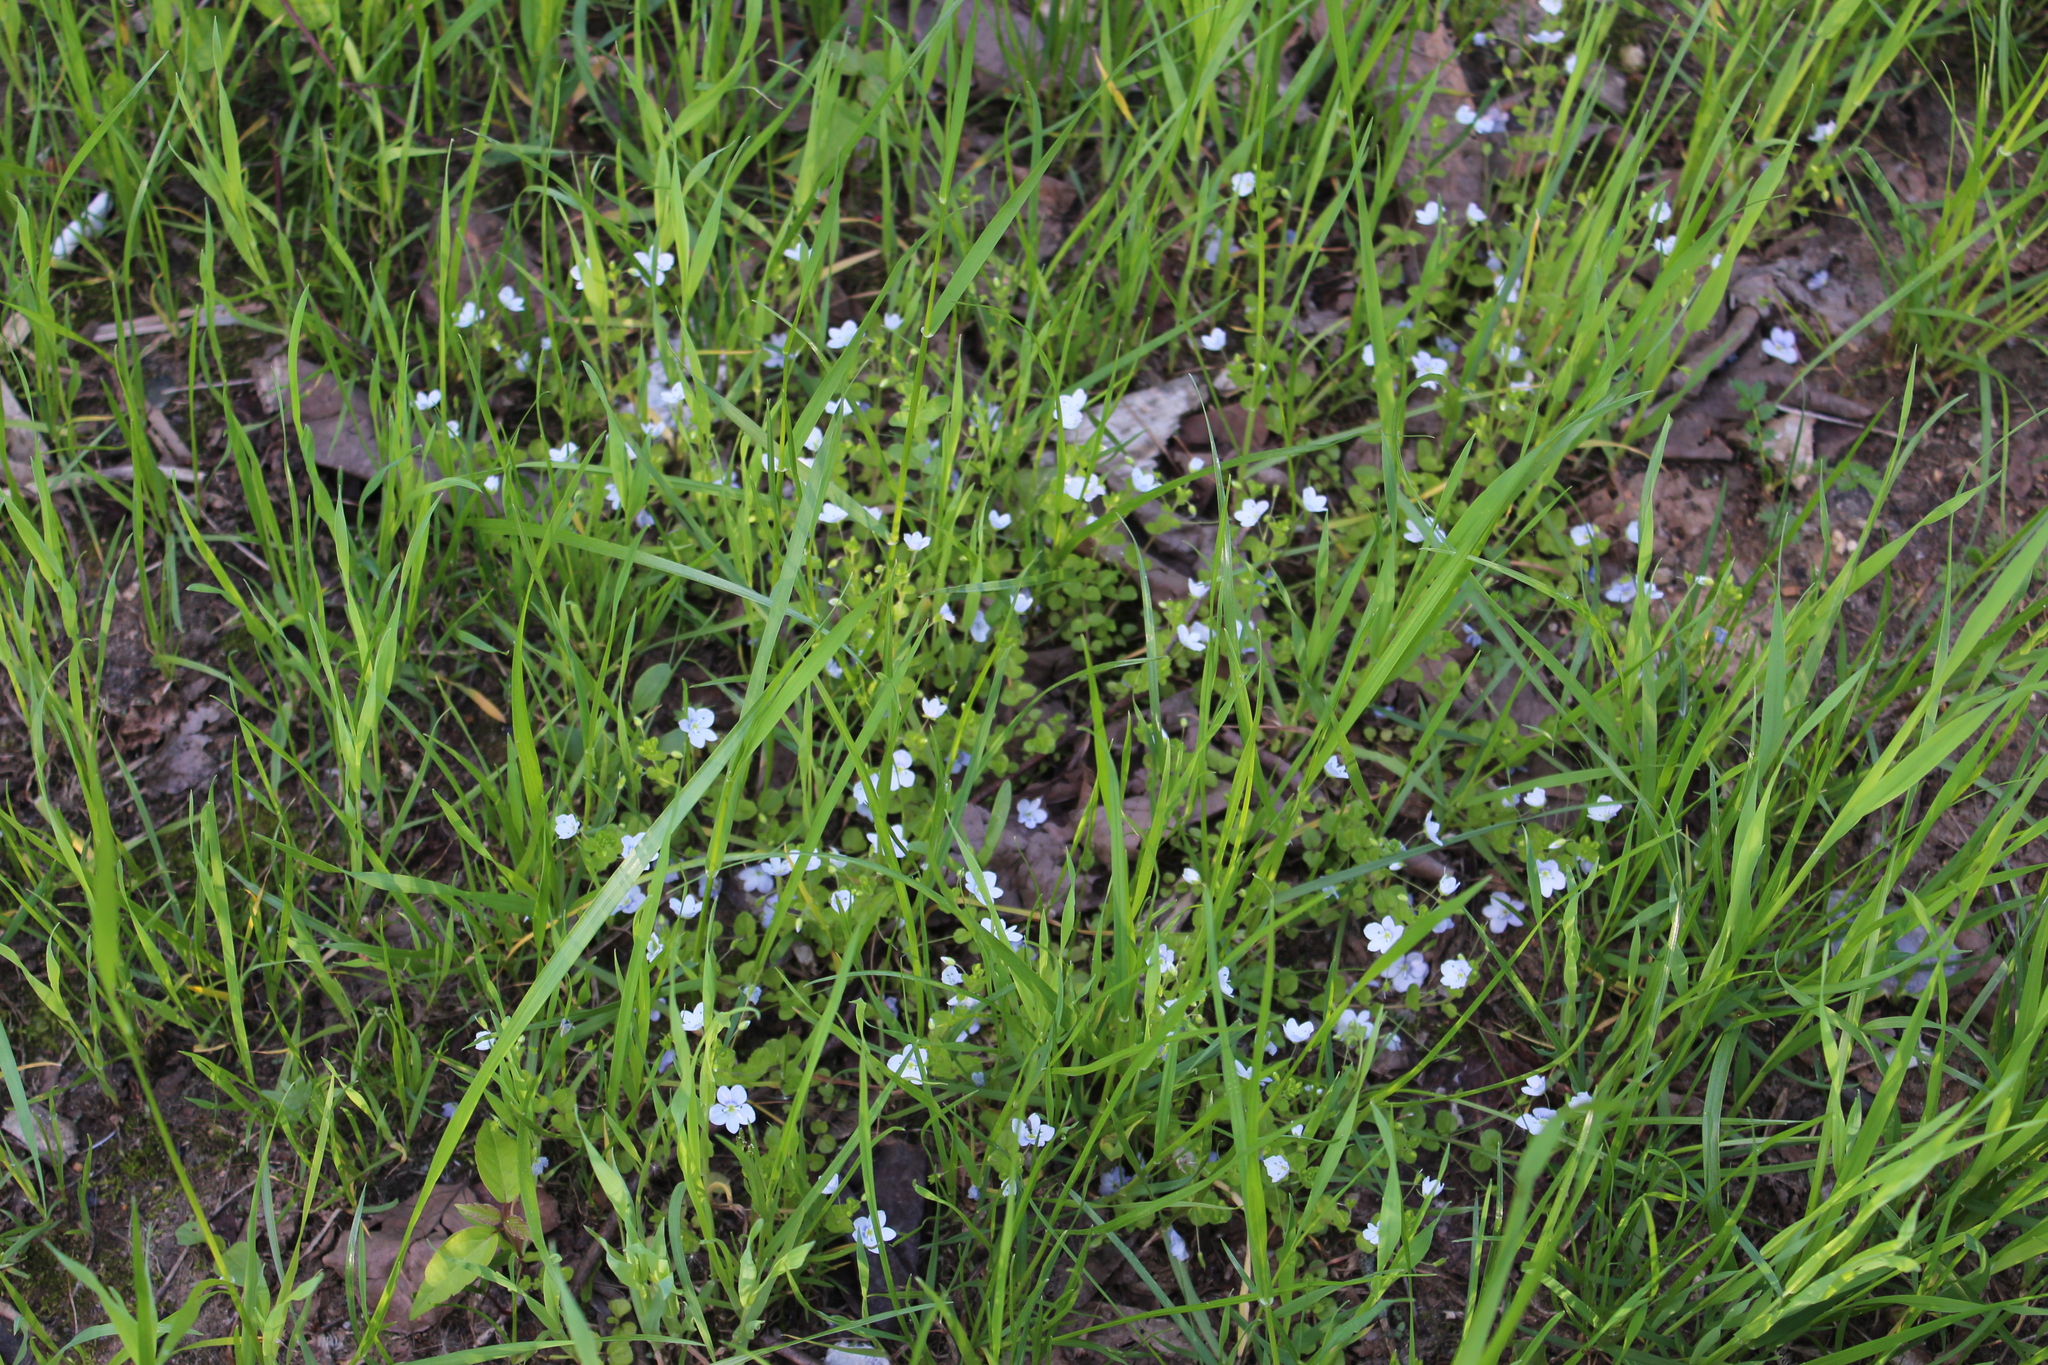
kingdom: Plantae
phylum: Tracheophyta
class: Magnoliopsida
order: Lamiales
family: Plantaginaceae
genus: Veronica
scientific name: Veronica filiformis
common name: Slender speedwell
